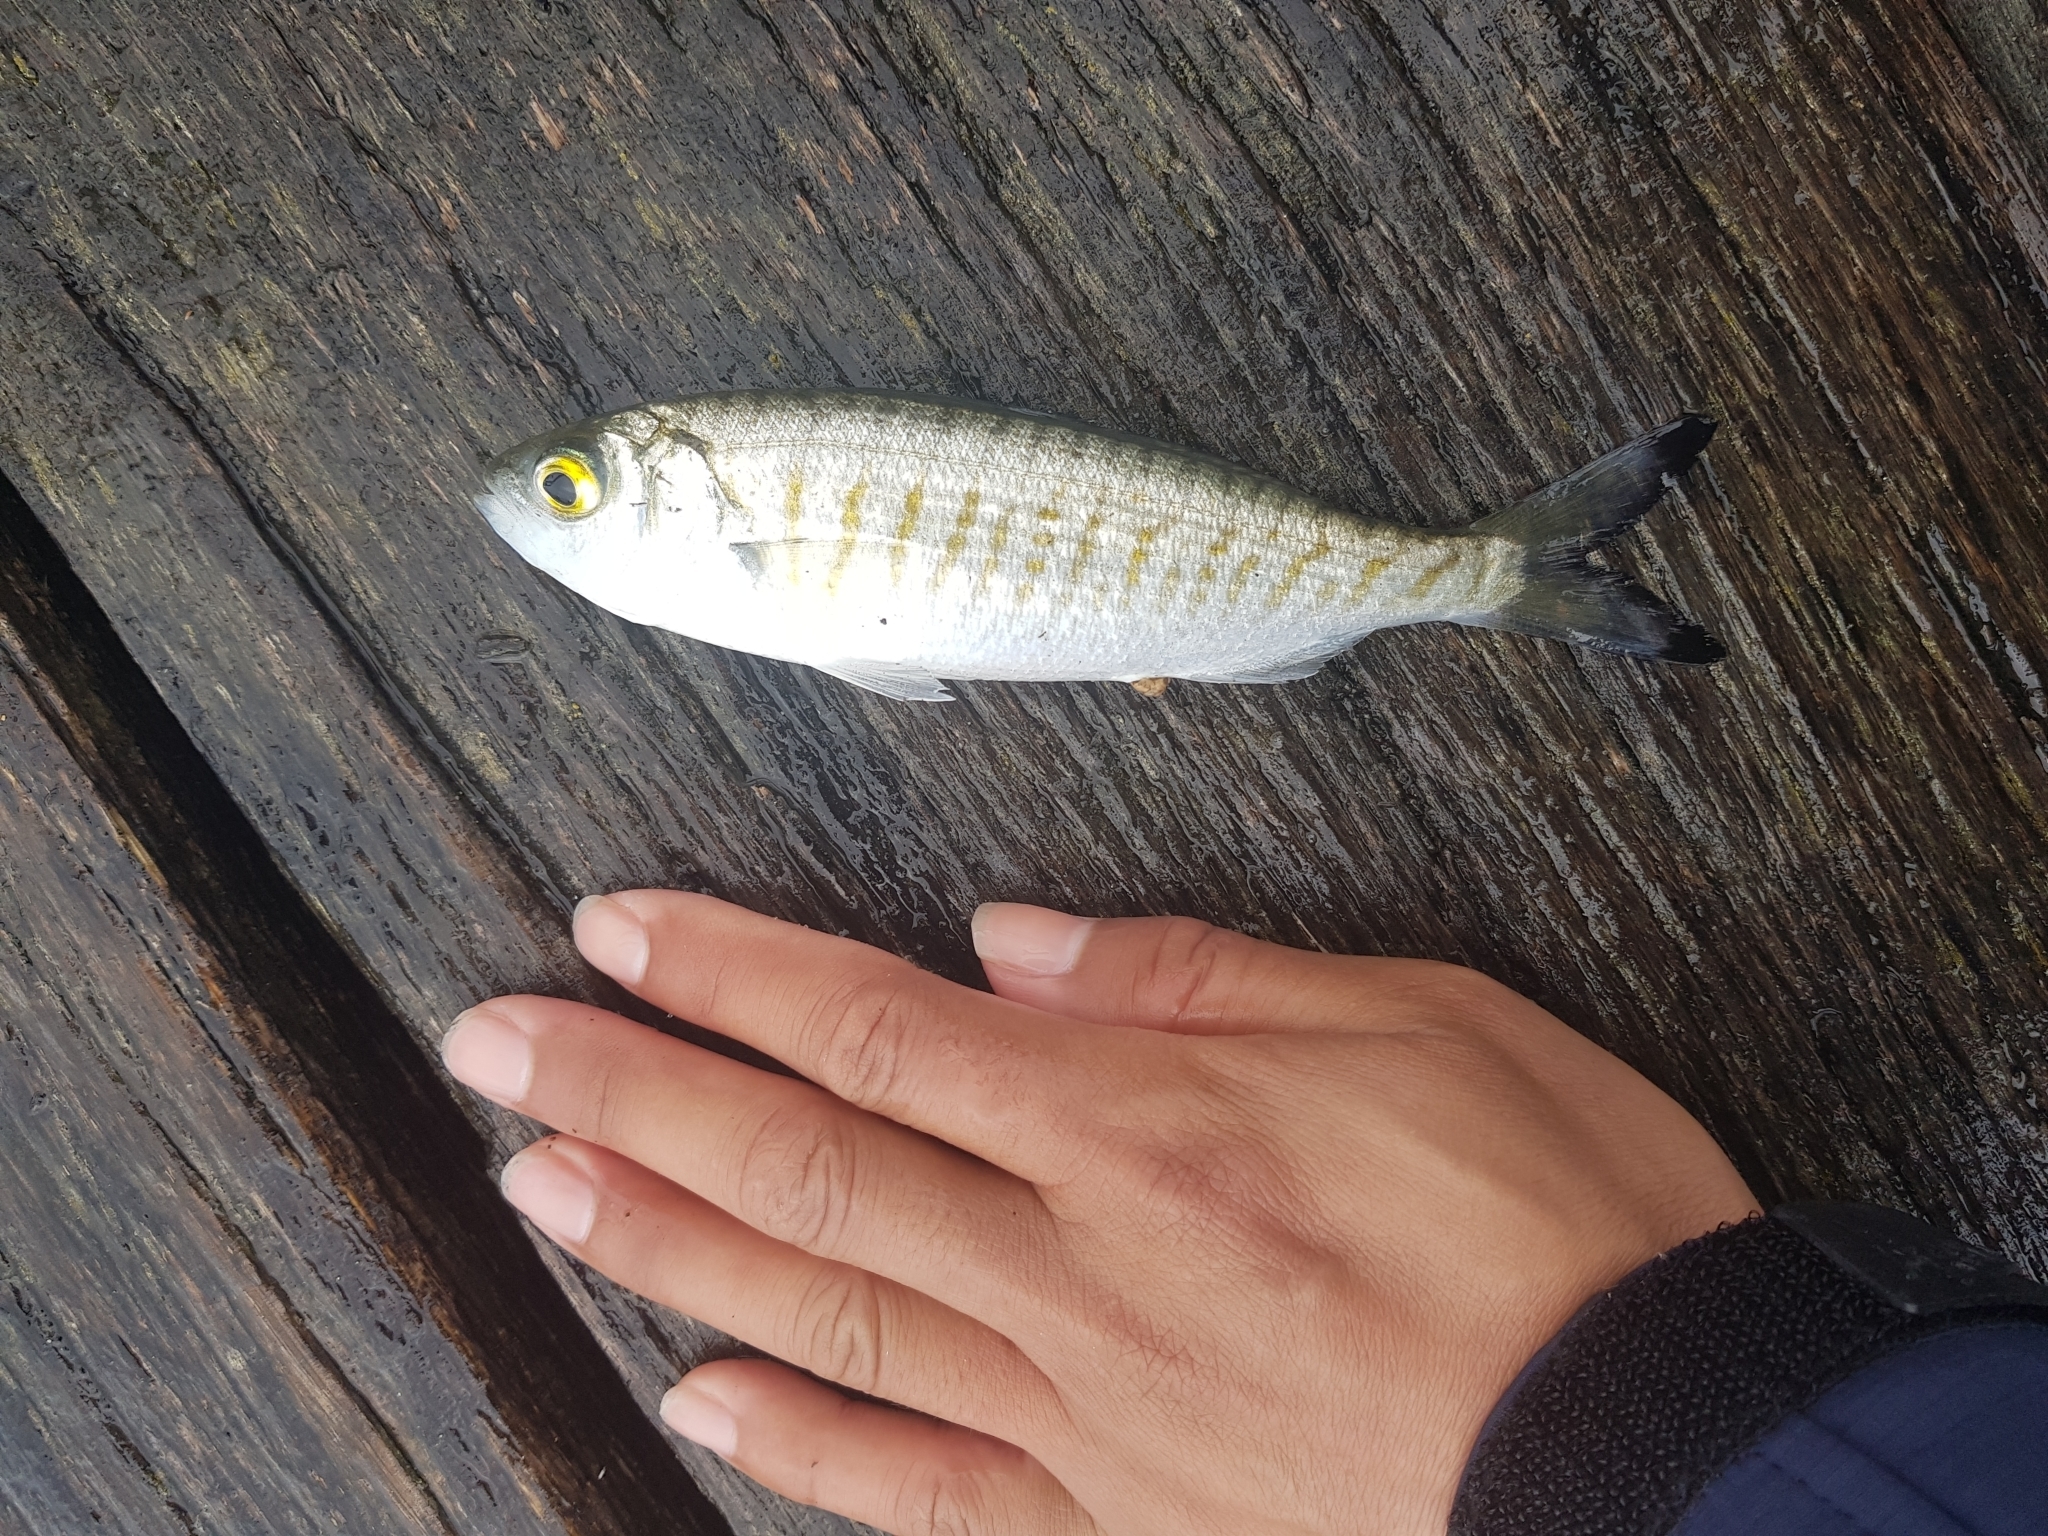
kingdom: Animalia
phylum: Chordata
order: Perciformes
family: Arripidae
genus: Arripis
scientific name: Arripis georgianus
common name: Australian herring
